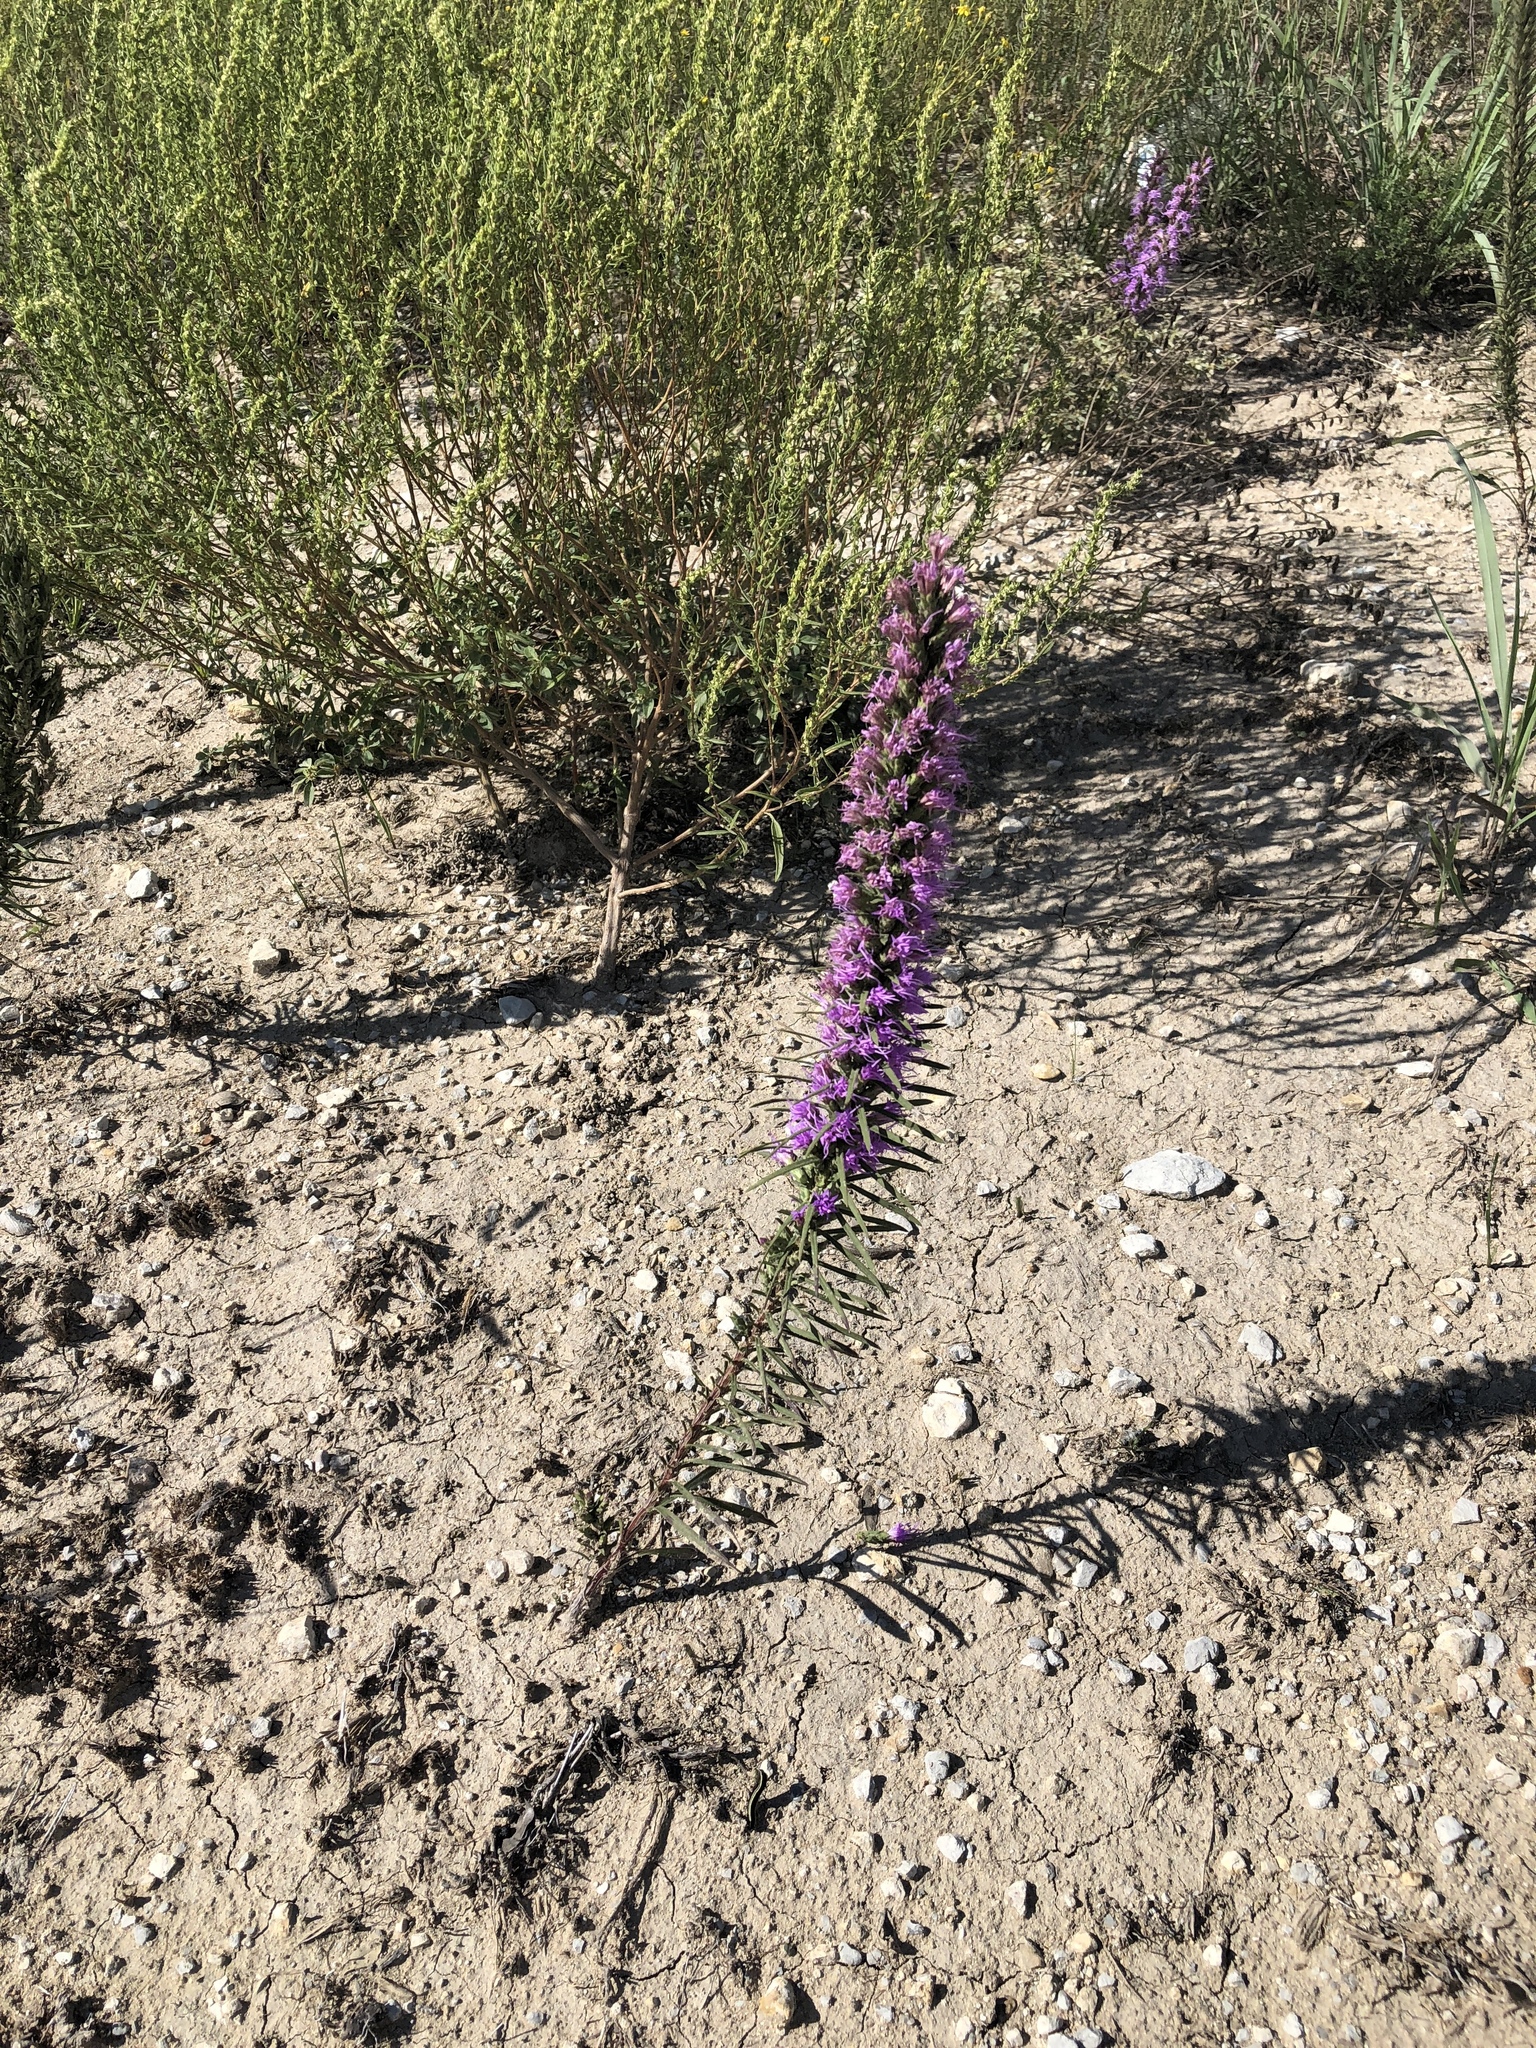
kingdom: Plantae
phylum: Tracheophyta
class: Magnoliopsida
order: Asterales
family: Asteraceae
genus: Liatris
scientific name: Liatris punctata
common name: Dotted gayfeather
